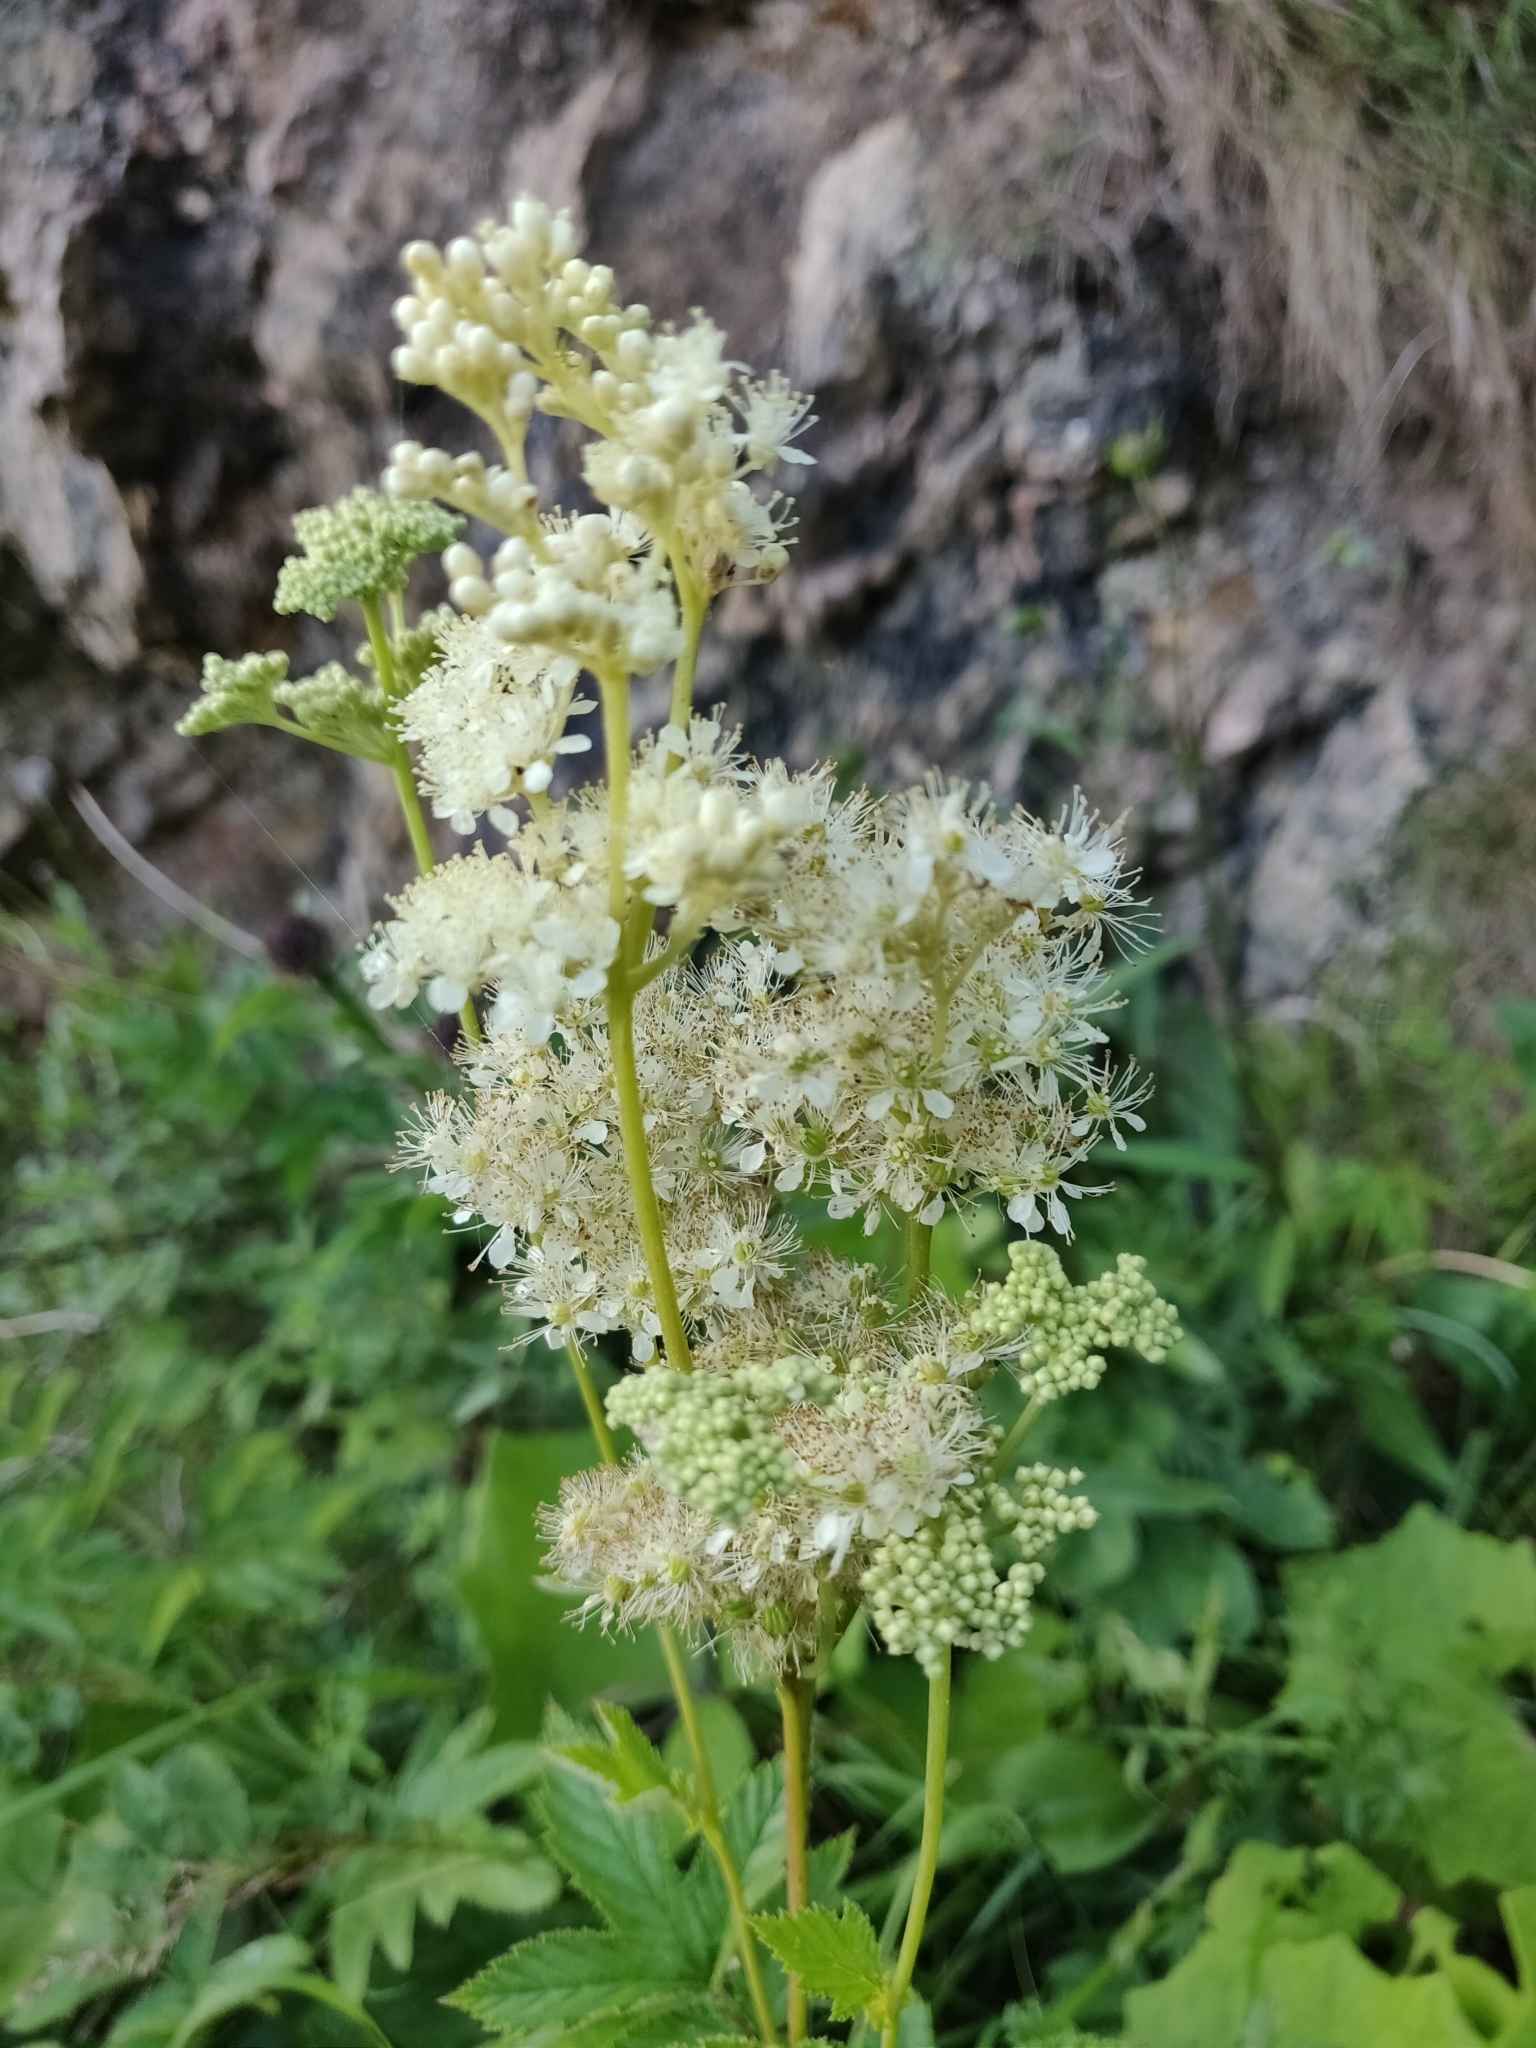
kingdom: Plantae
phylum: Tracheophyta
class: Magnoliopsida
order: Rosales
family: Rosaceae
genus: Filipendula
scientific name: Filipendula ulmaria
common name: Meadowsweet
